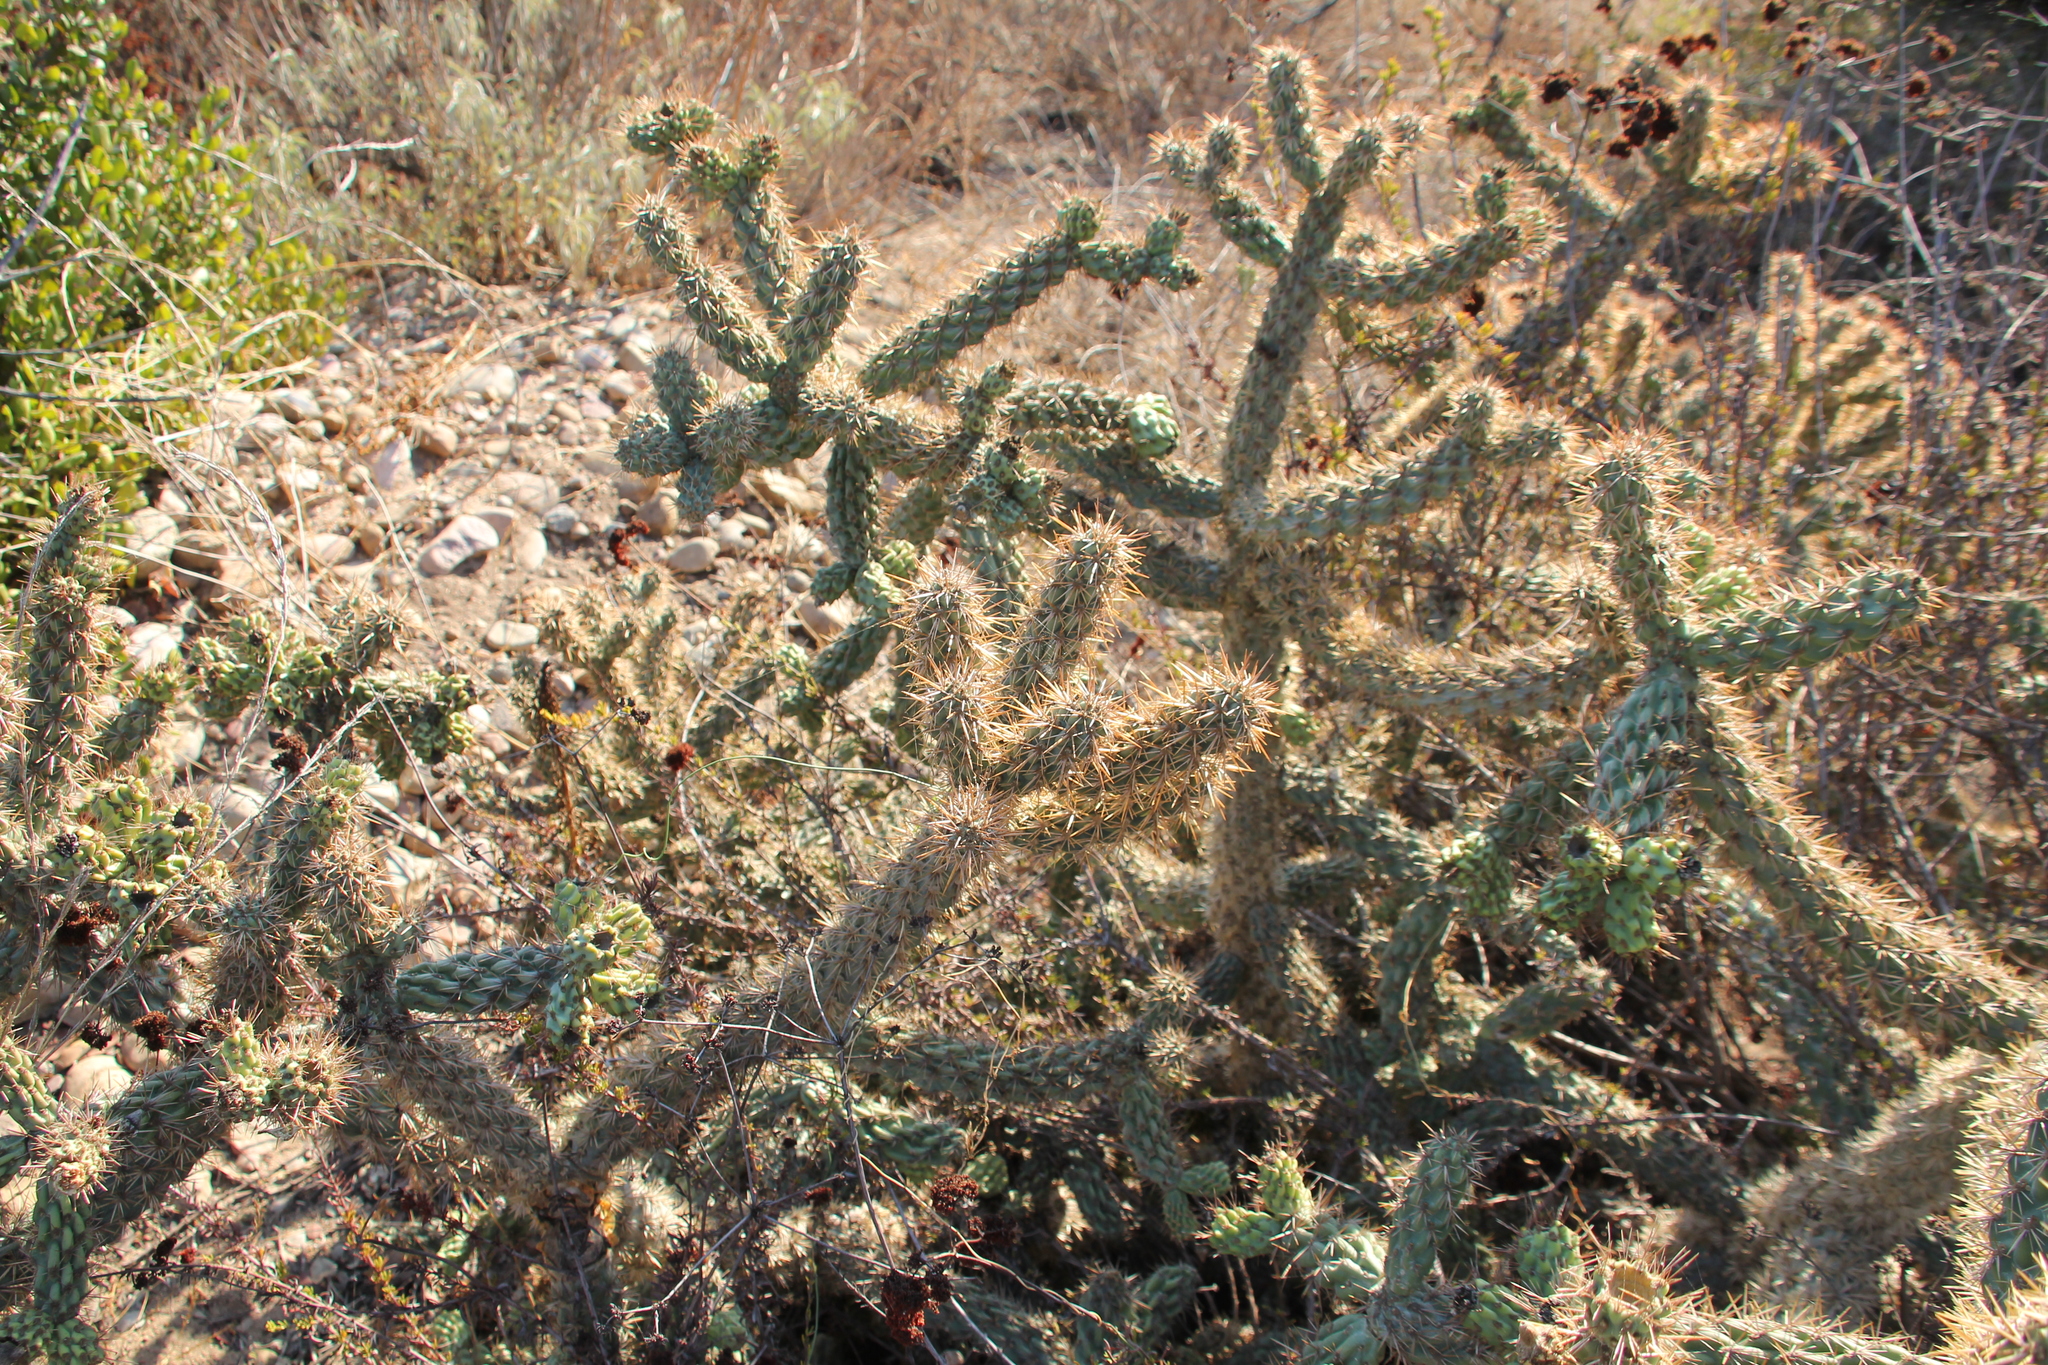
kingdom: Plantae
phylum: Tracheophyta
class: Magnoliopsida
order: Caryophyllales
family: Cactaceae
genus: Cylindropuntia
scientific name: Cylindropuntia prolifera
